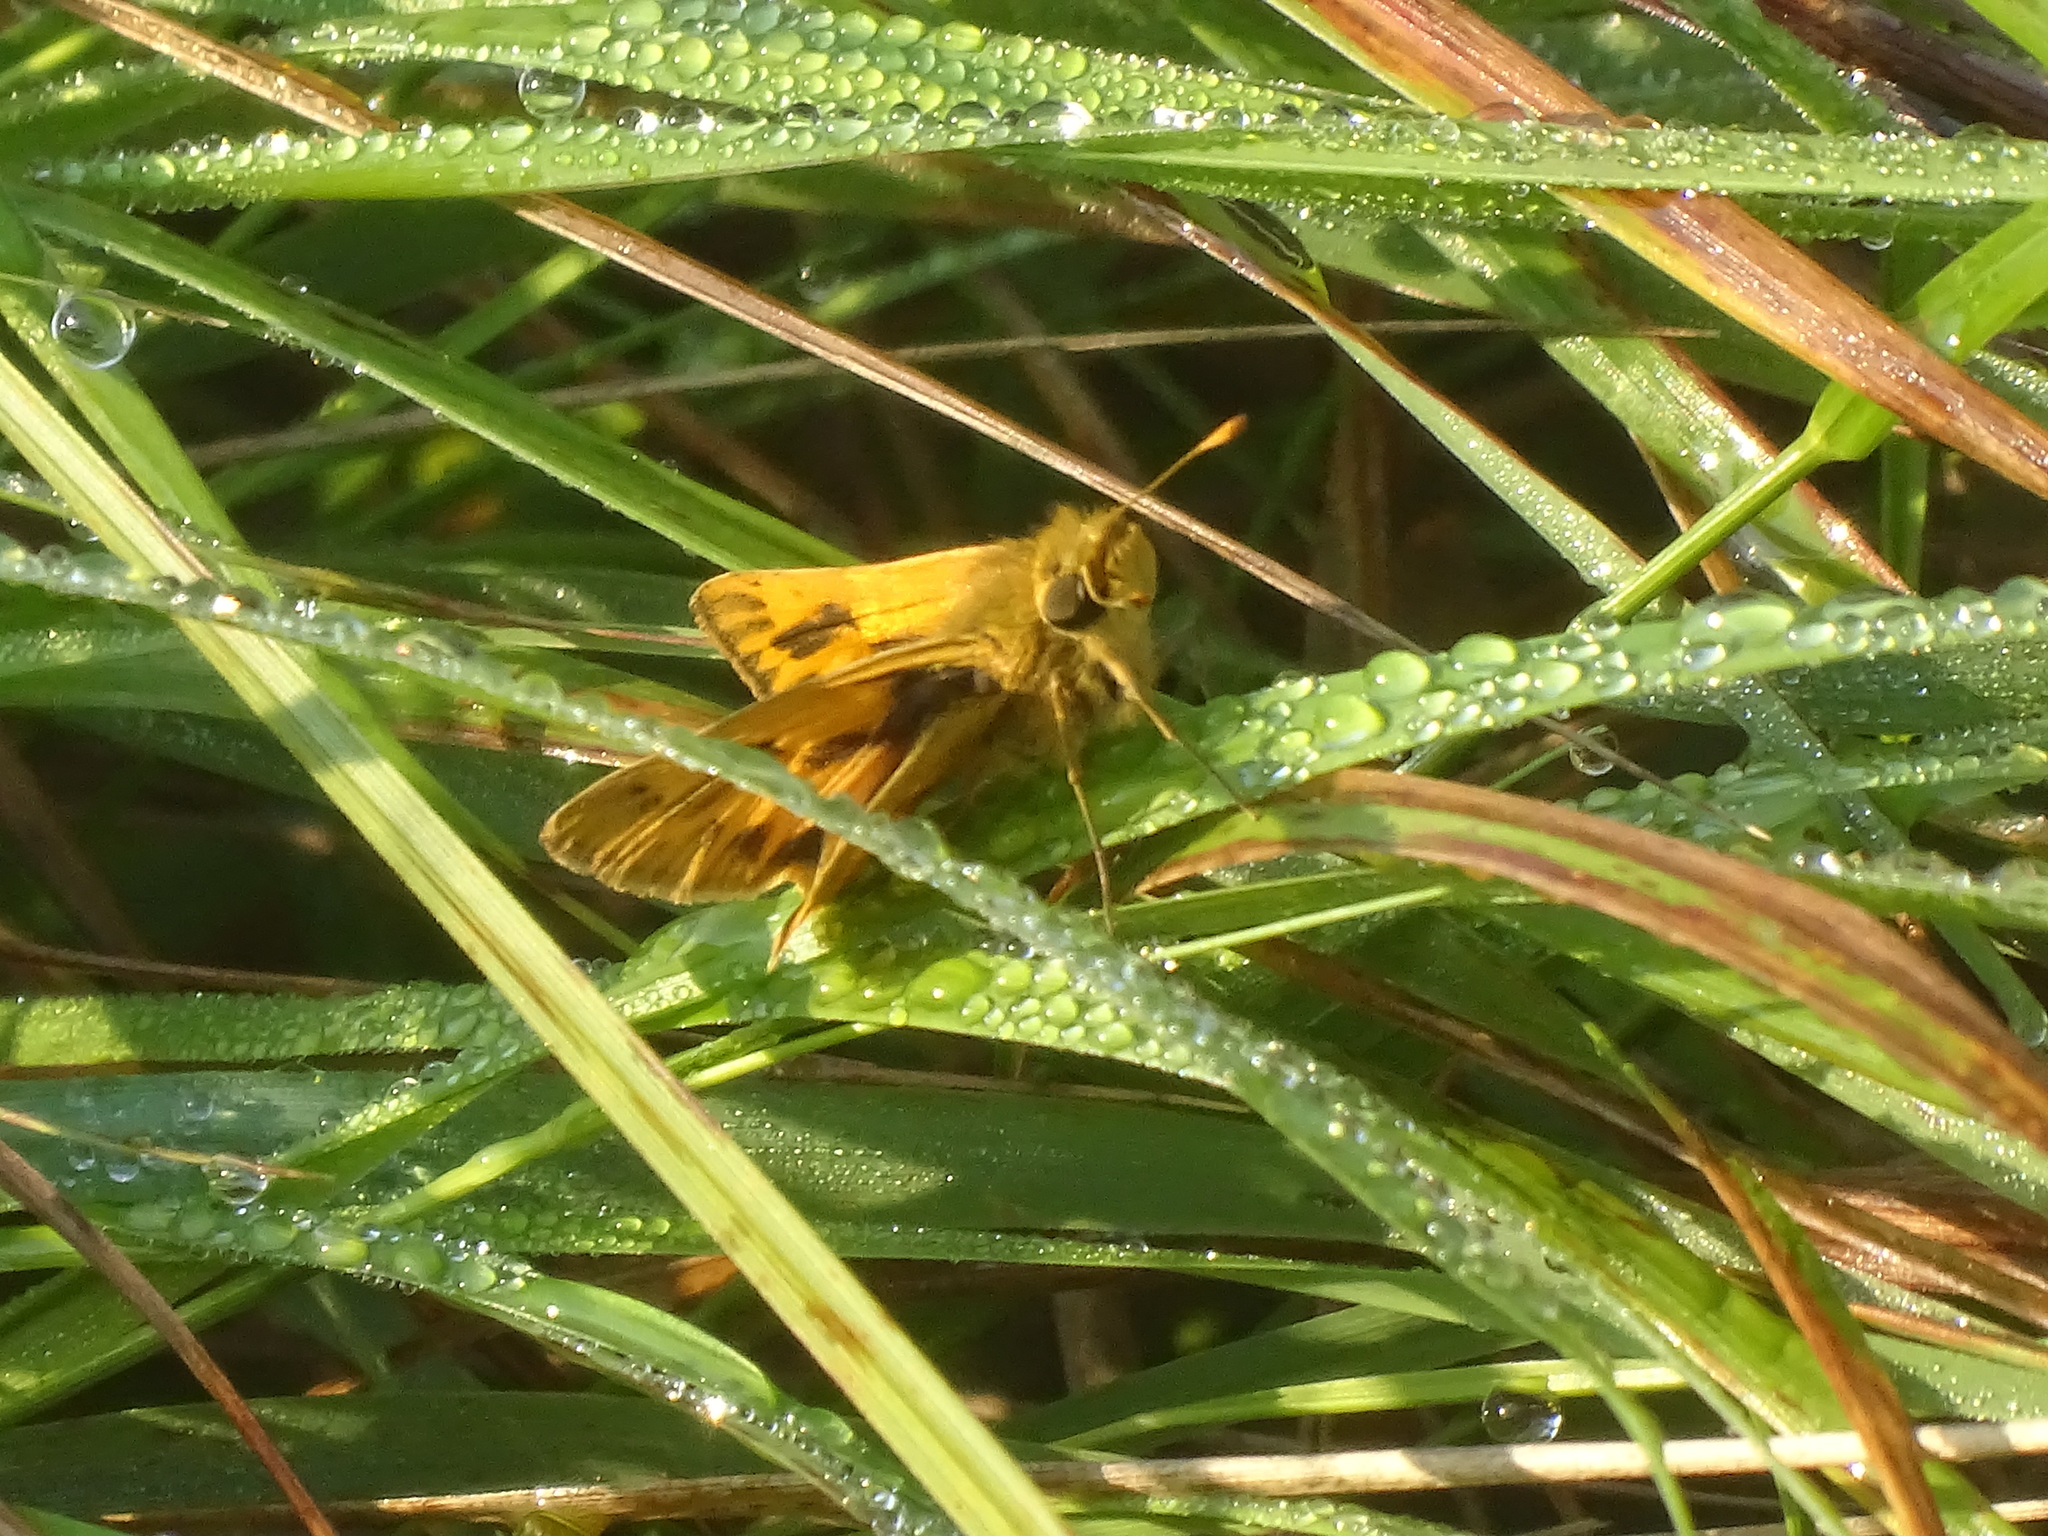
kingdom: Animalia
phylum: Arthropoda
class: Insecta
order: Lepidoptera
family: Hesperiidae
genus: Hylephila
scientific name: Hylephila phyleus
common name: Fiery skipper
